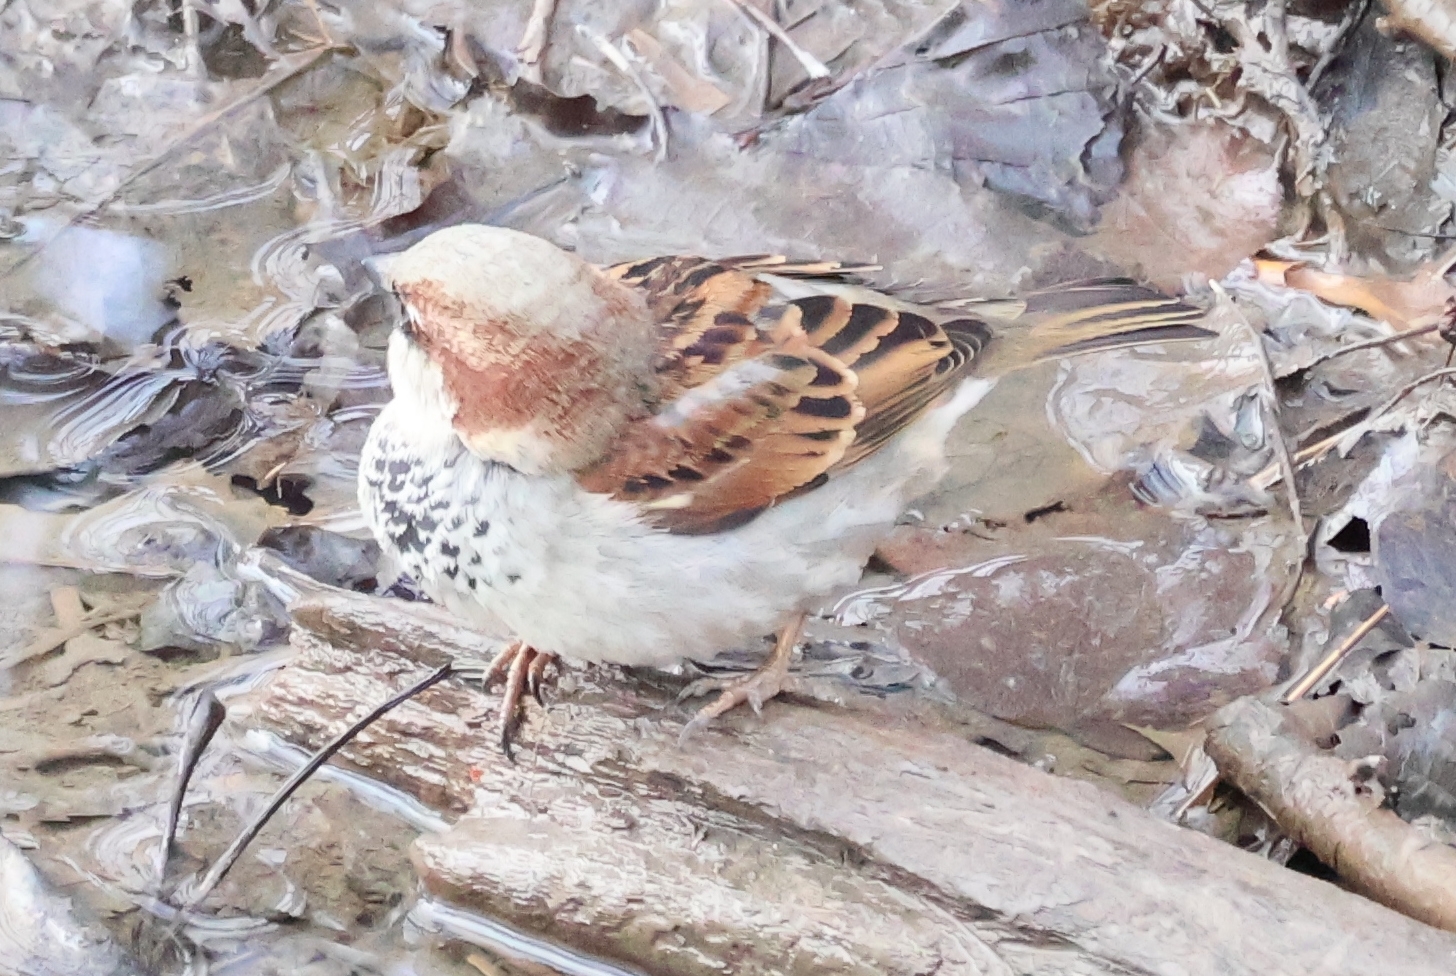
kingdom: Animalia
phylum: Chordata
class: Aves
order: Passeriformes
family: Passeridae
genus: Passer
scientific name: Passer domesticus
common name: House sparrow
